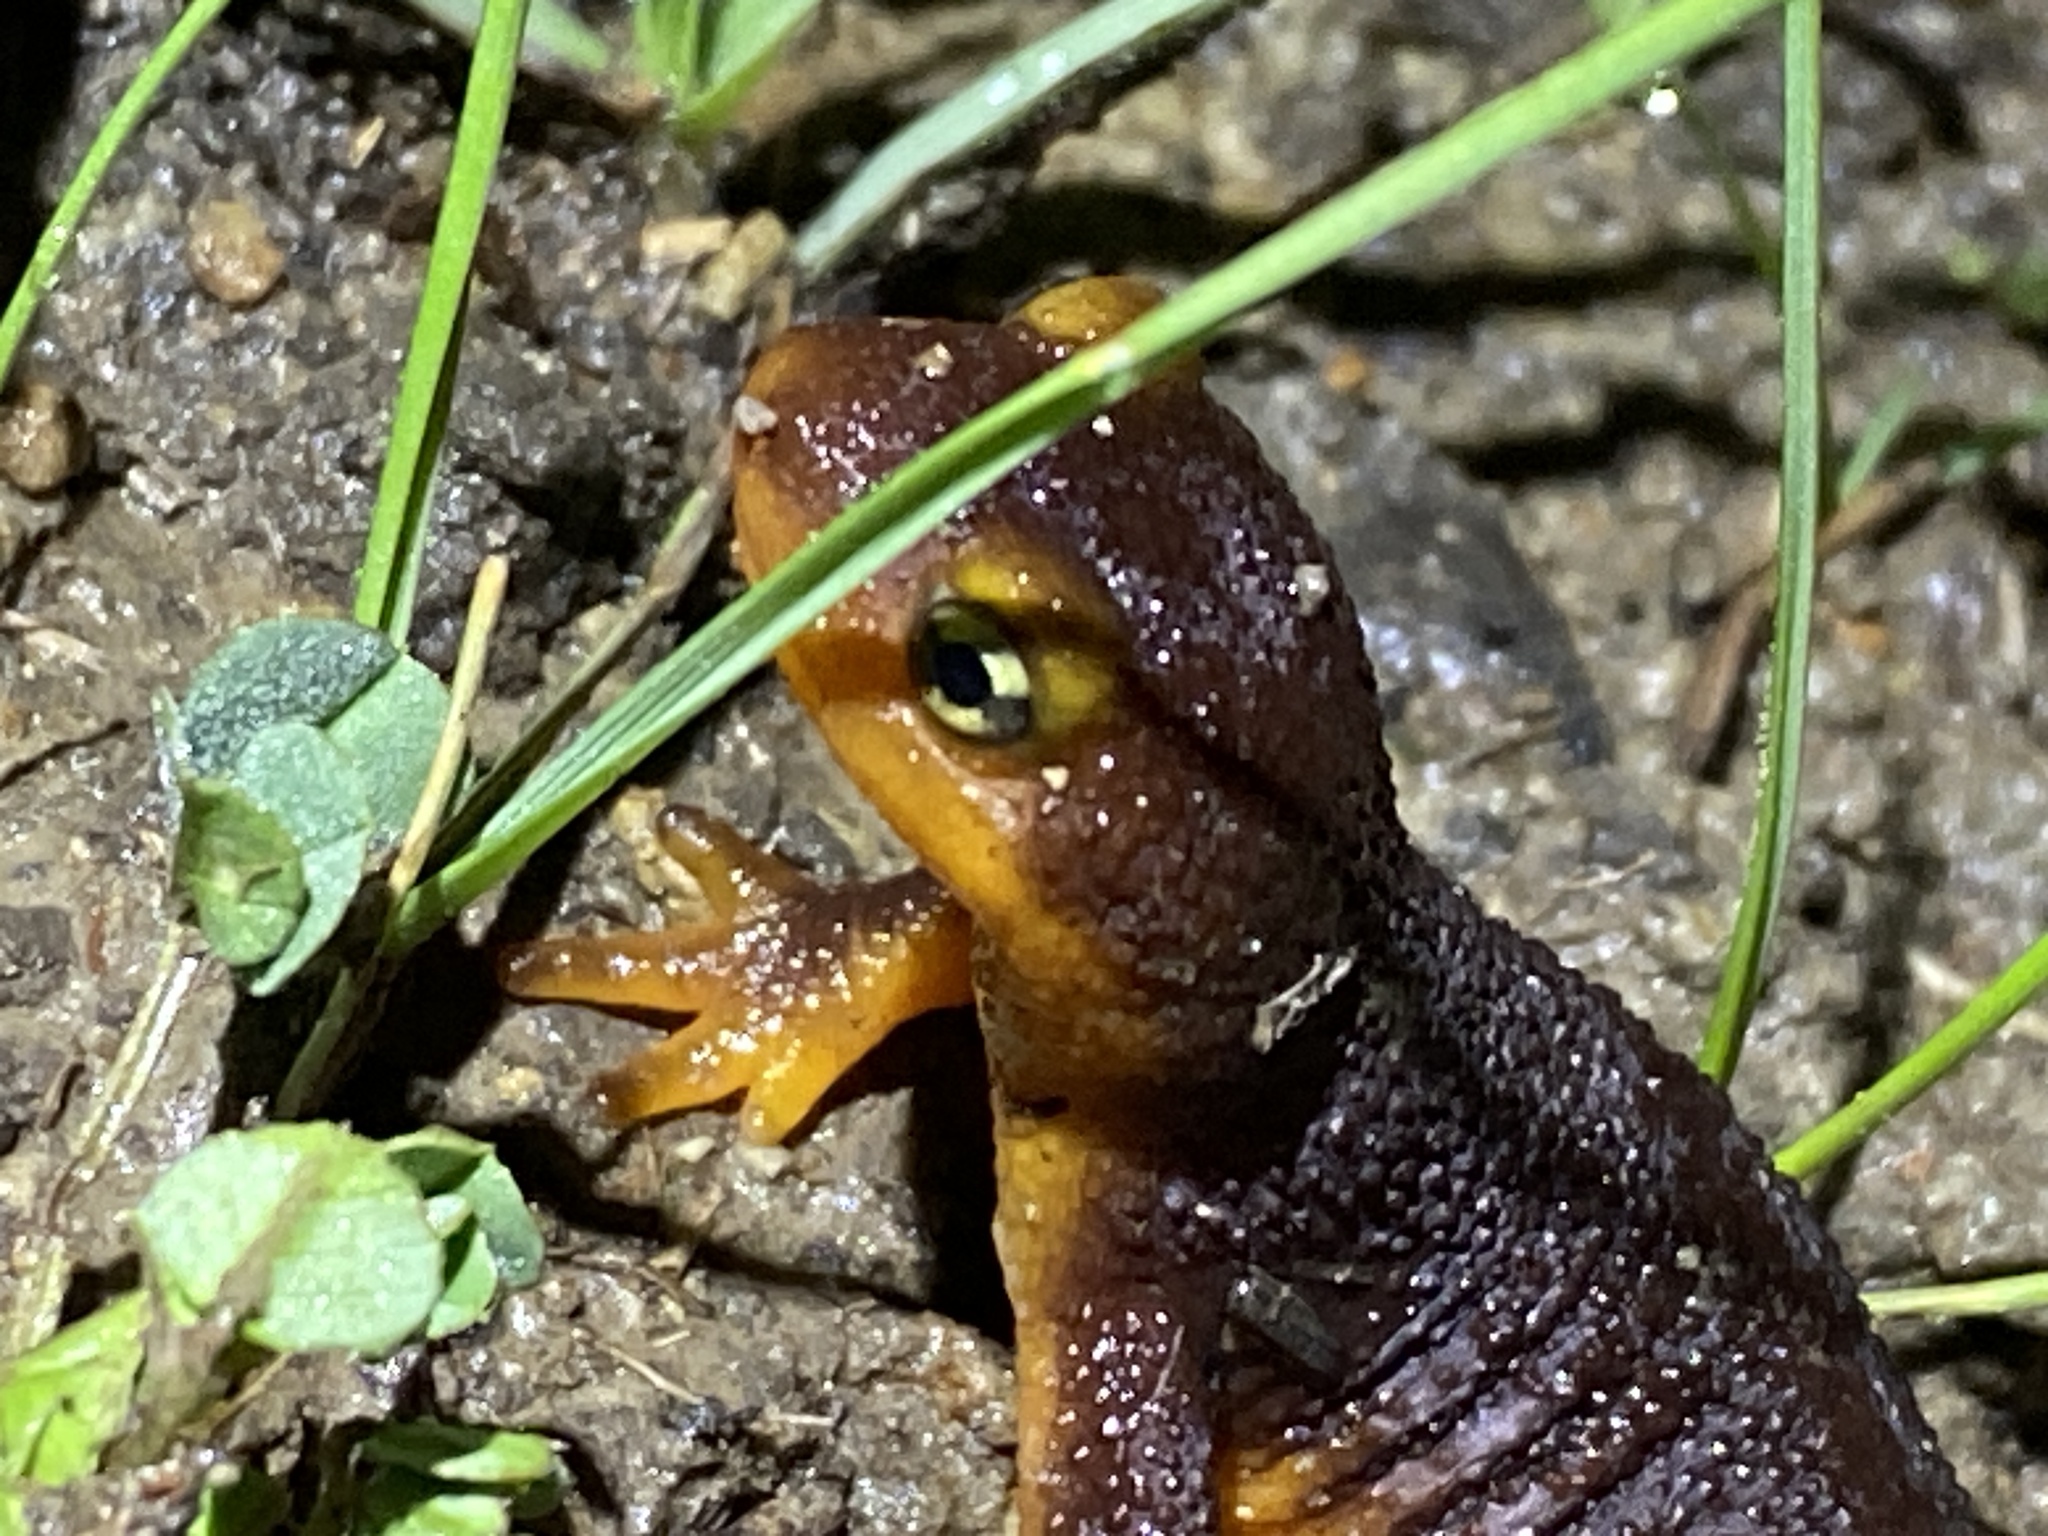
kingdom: Animalia
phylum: Chordata
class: Amphibia
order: Caudata
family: Salamandridae
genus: Taricha
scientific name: Taricha torosa
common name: California newt
